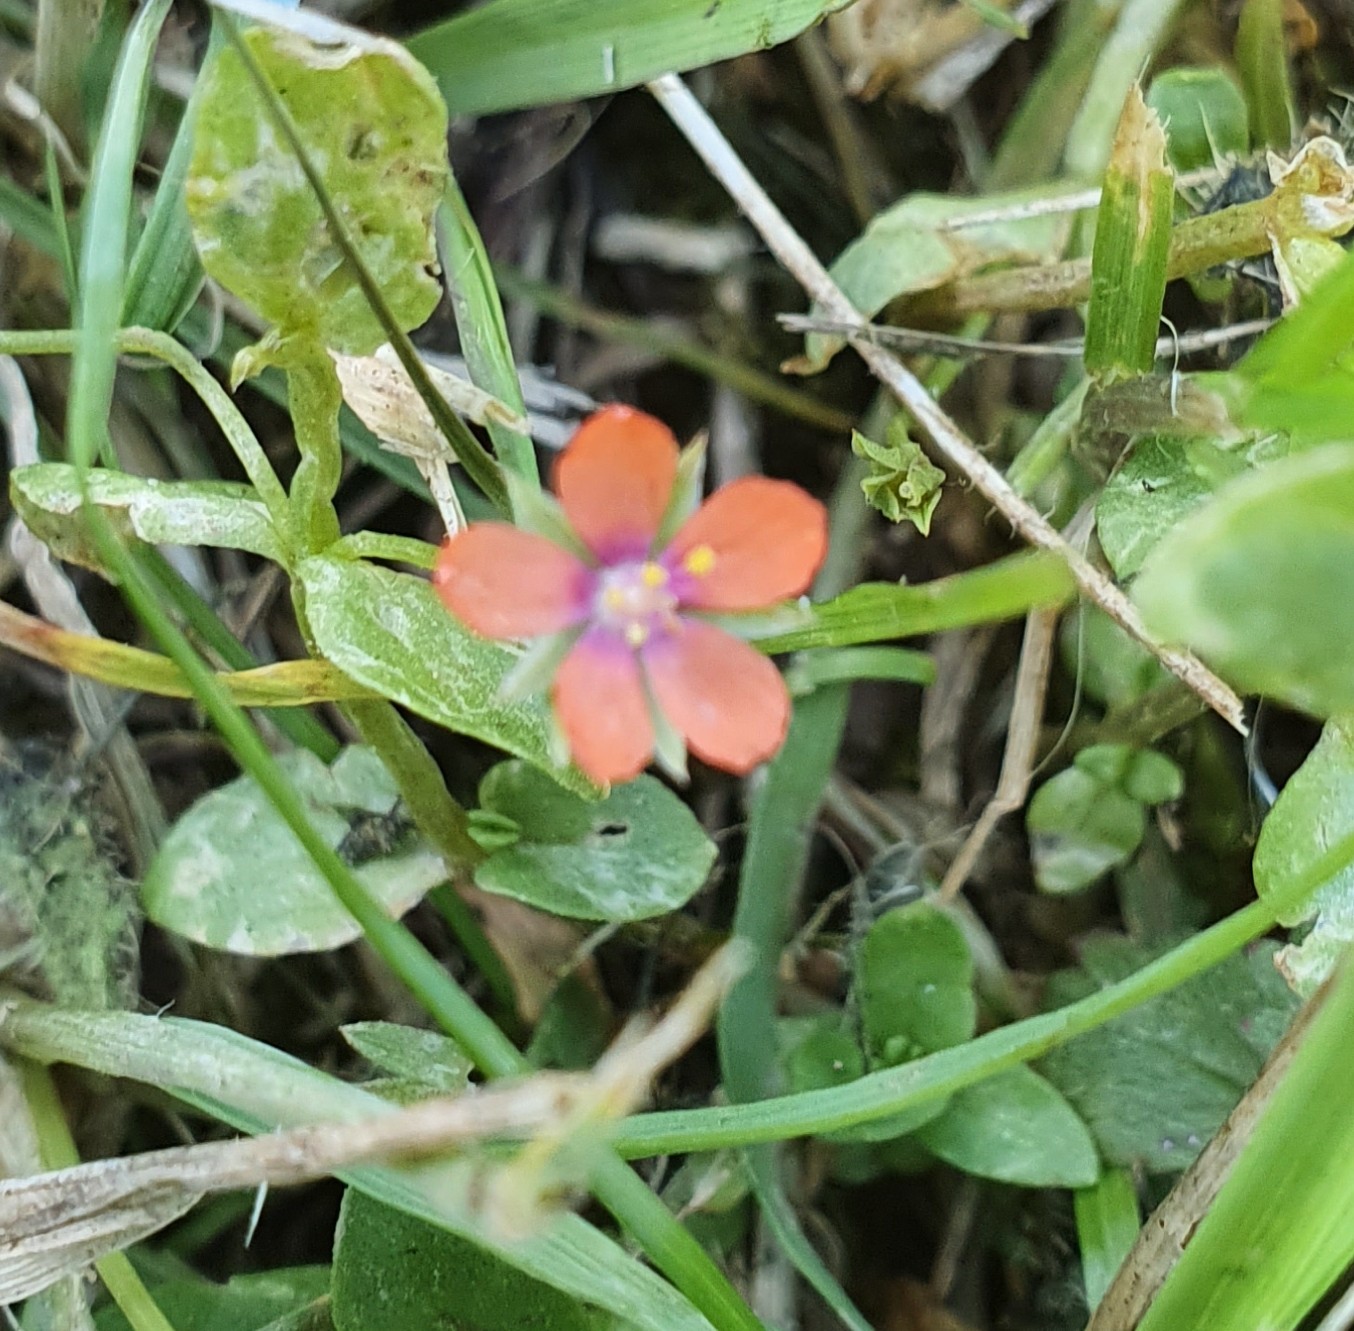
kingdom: Plantae
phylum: Tracheophyta
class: Magnoliopsida
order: Ericales
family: Primulaceae
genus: Lysimachia
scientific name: Lysimachia arvensis
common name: Scarlet pimpernel
